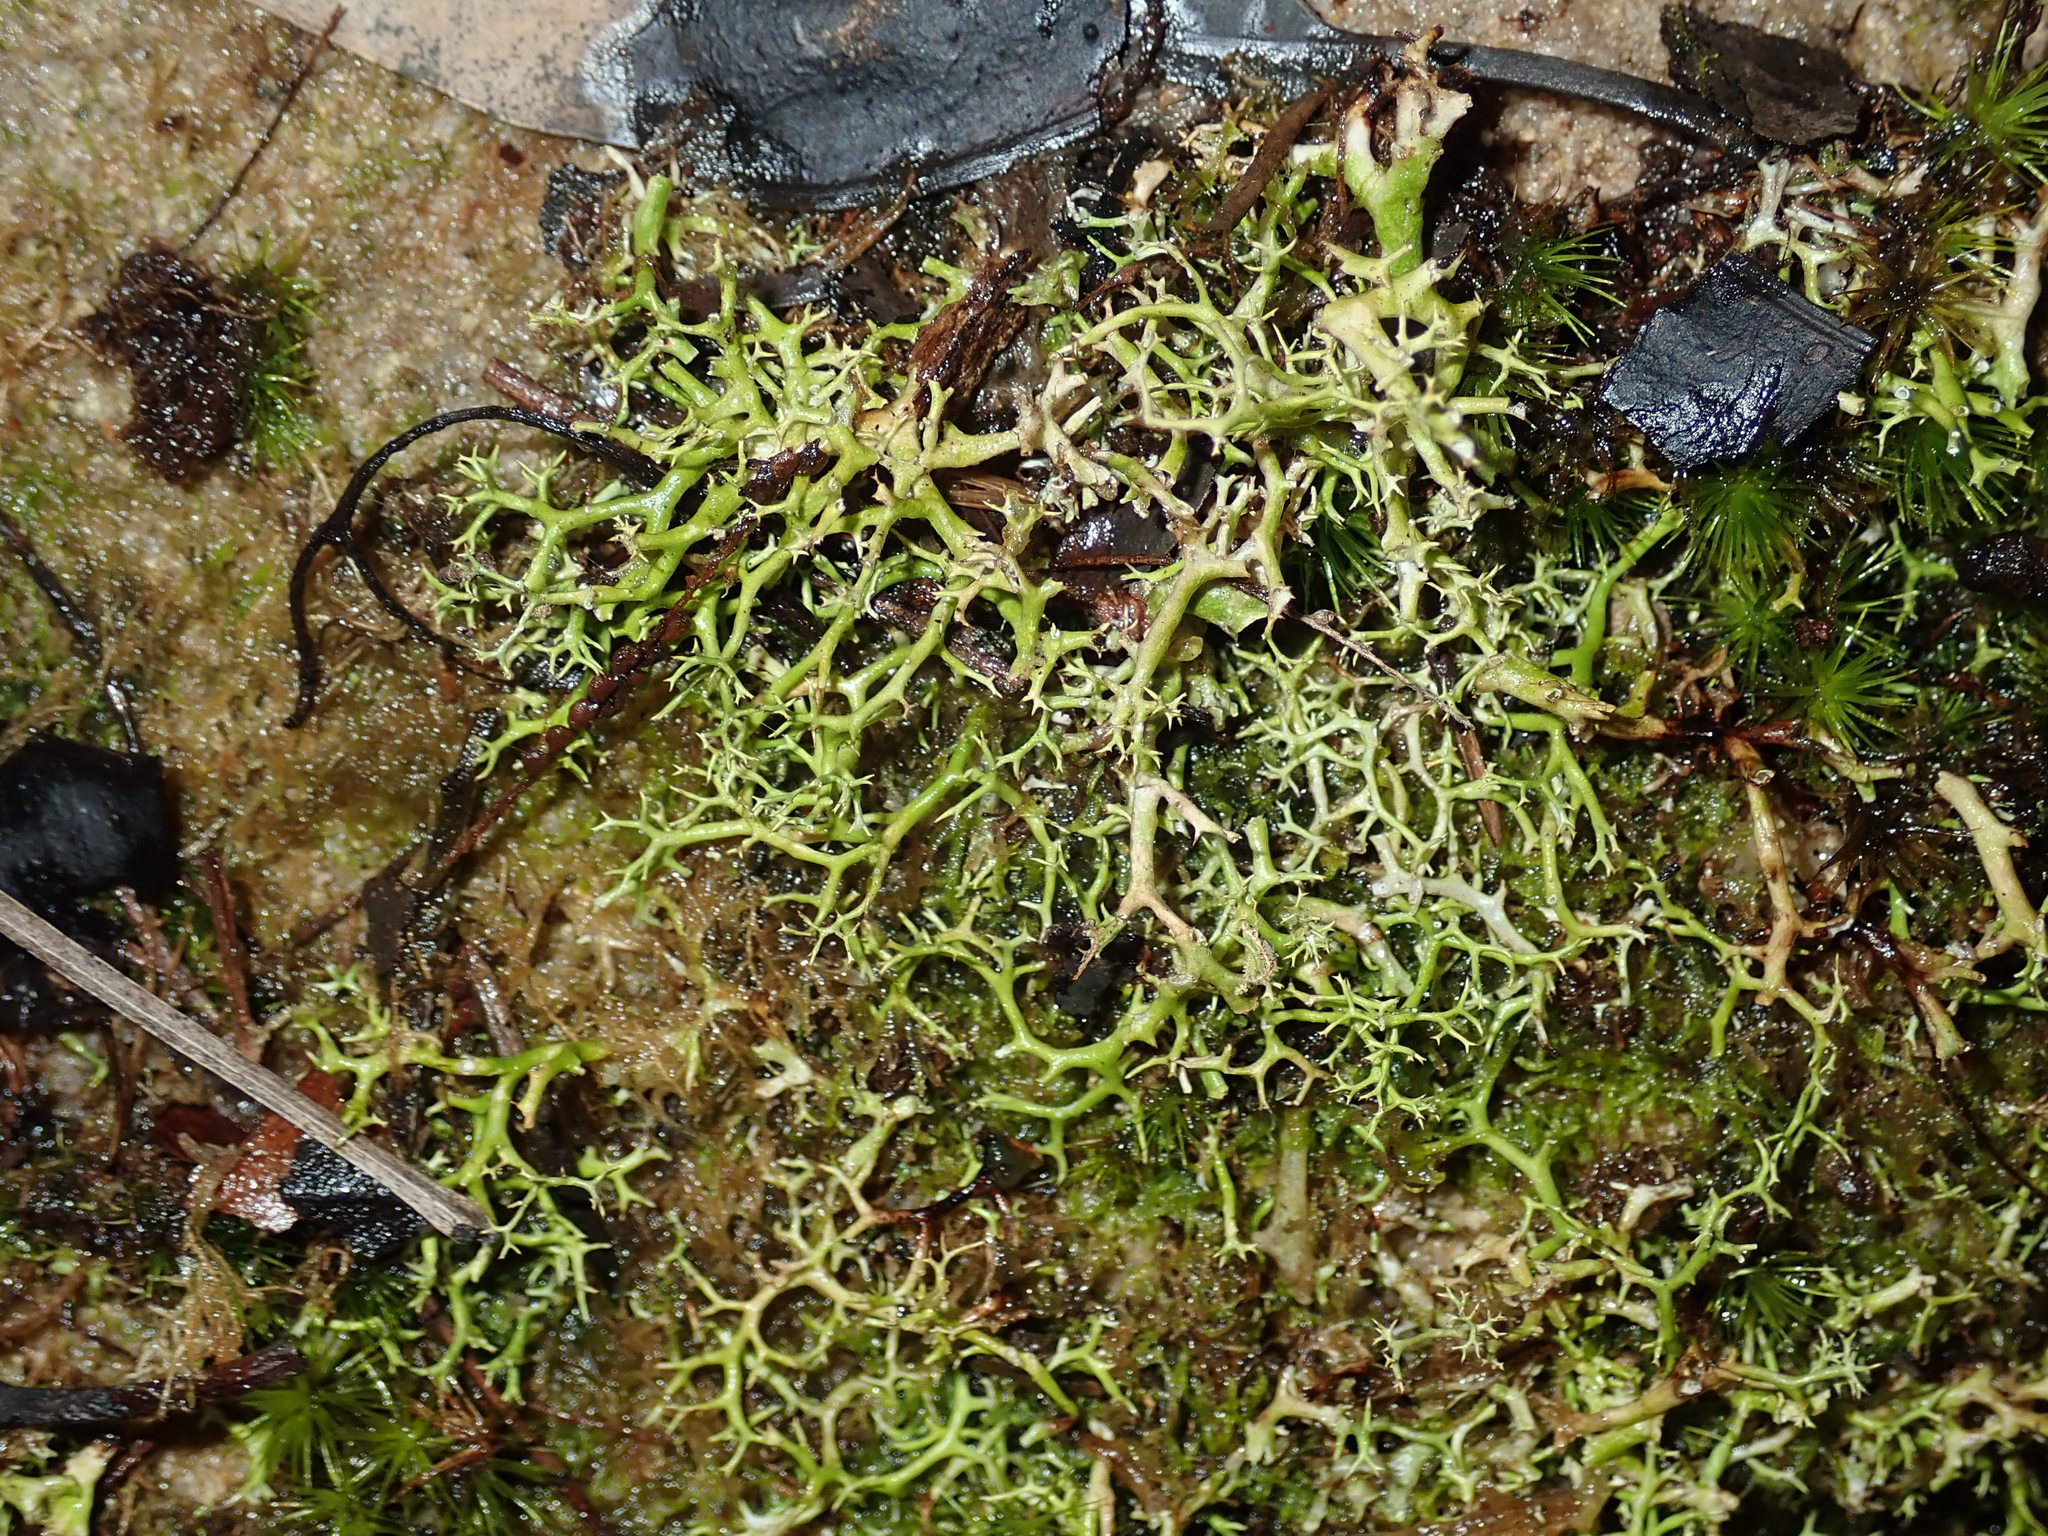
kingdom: Fungi
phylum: Ascomycota
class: Lecanoromycetes
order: Lecanorales
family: Cladoniaceae
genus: Cladia
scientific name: Cladia aggregata
